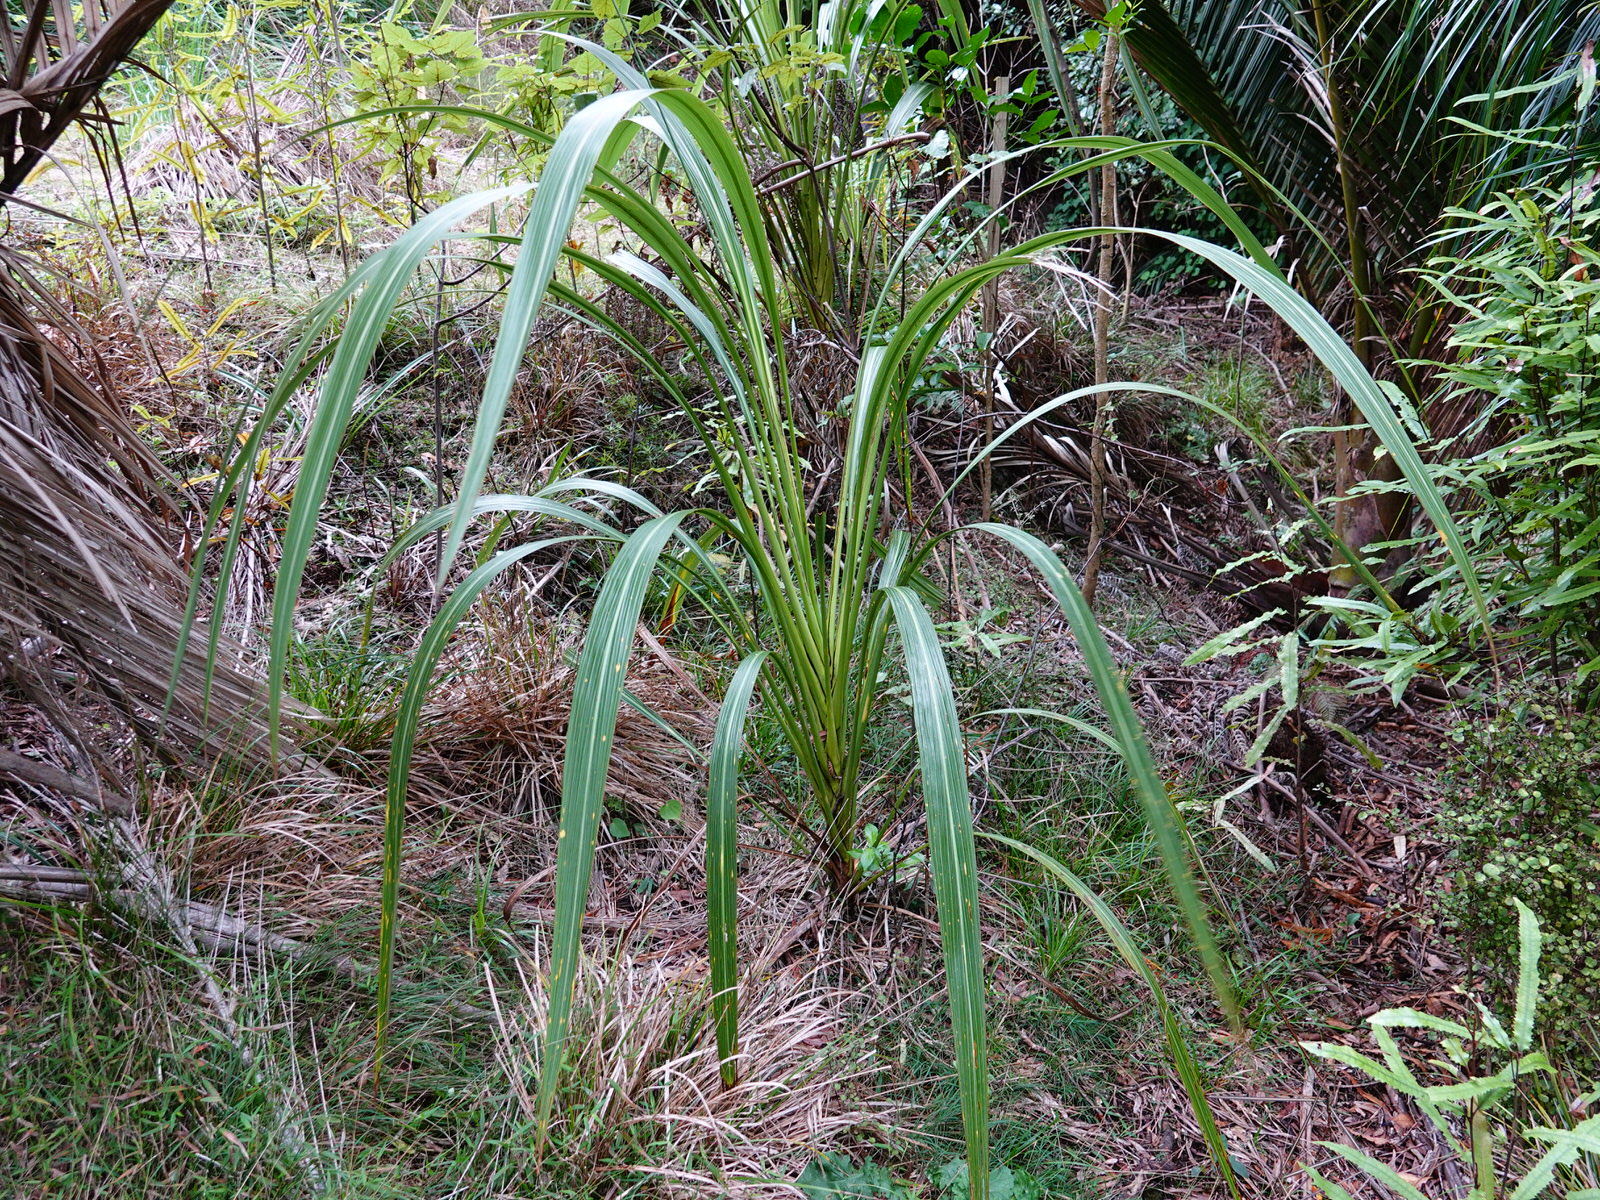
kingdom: Plantae
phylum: Tracheophyta
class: Liliopsida
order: Asparagales
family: Asparagaceae
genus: Cordyline
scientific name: Cordyline banksii
